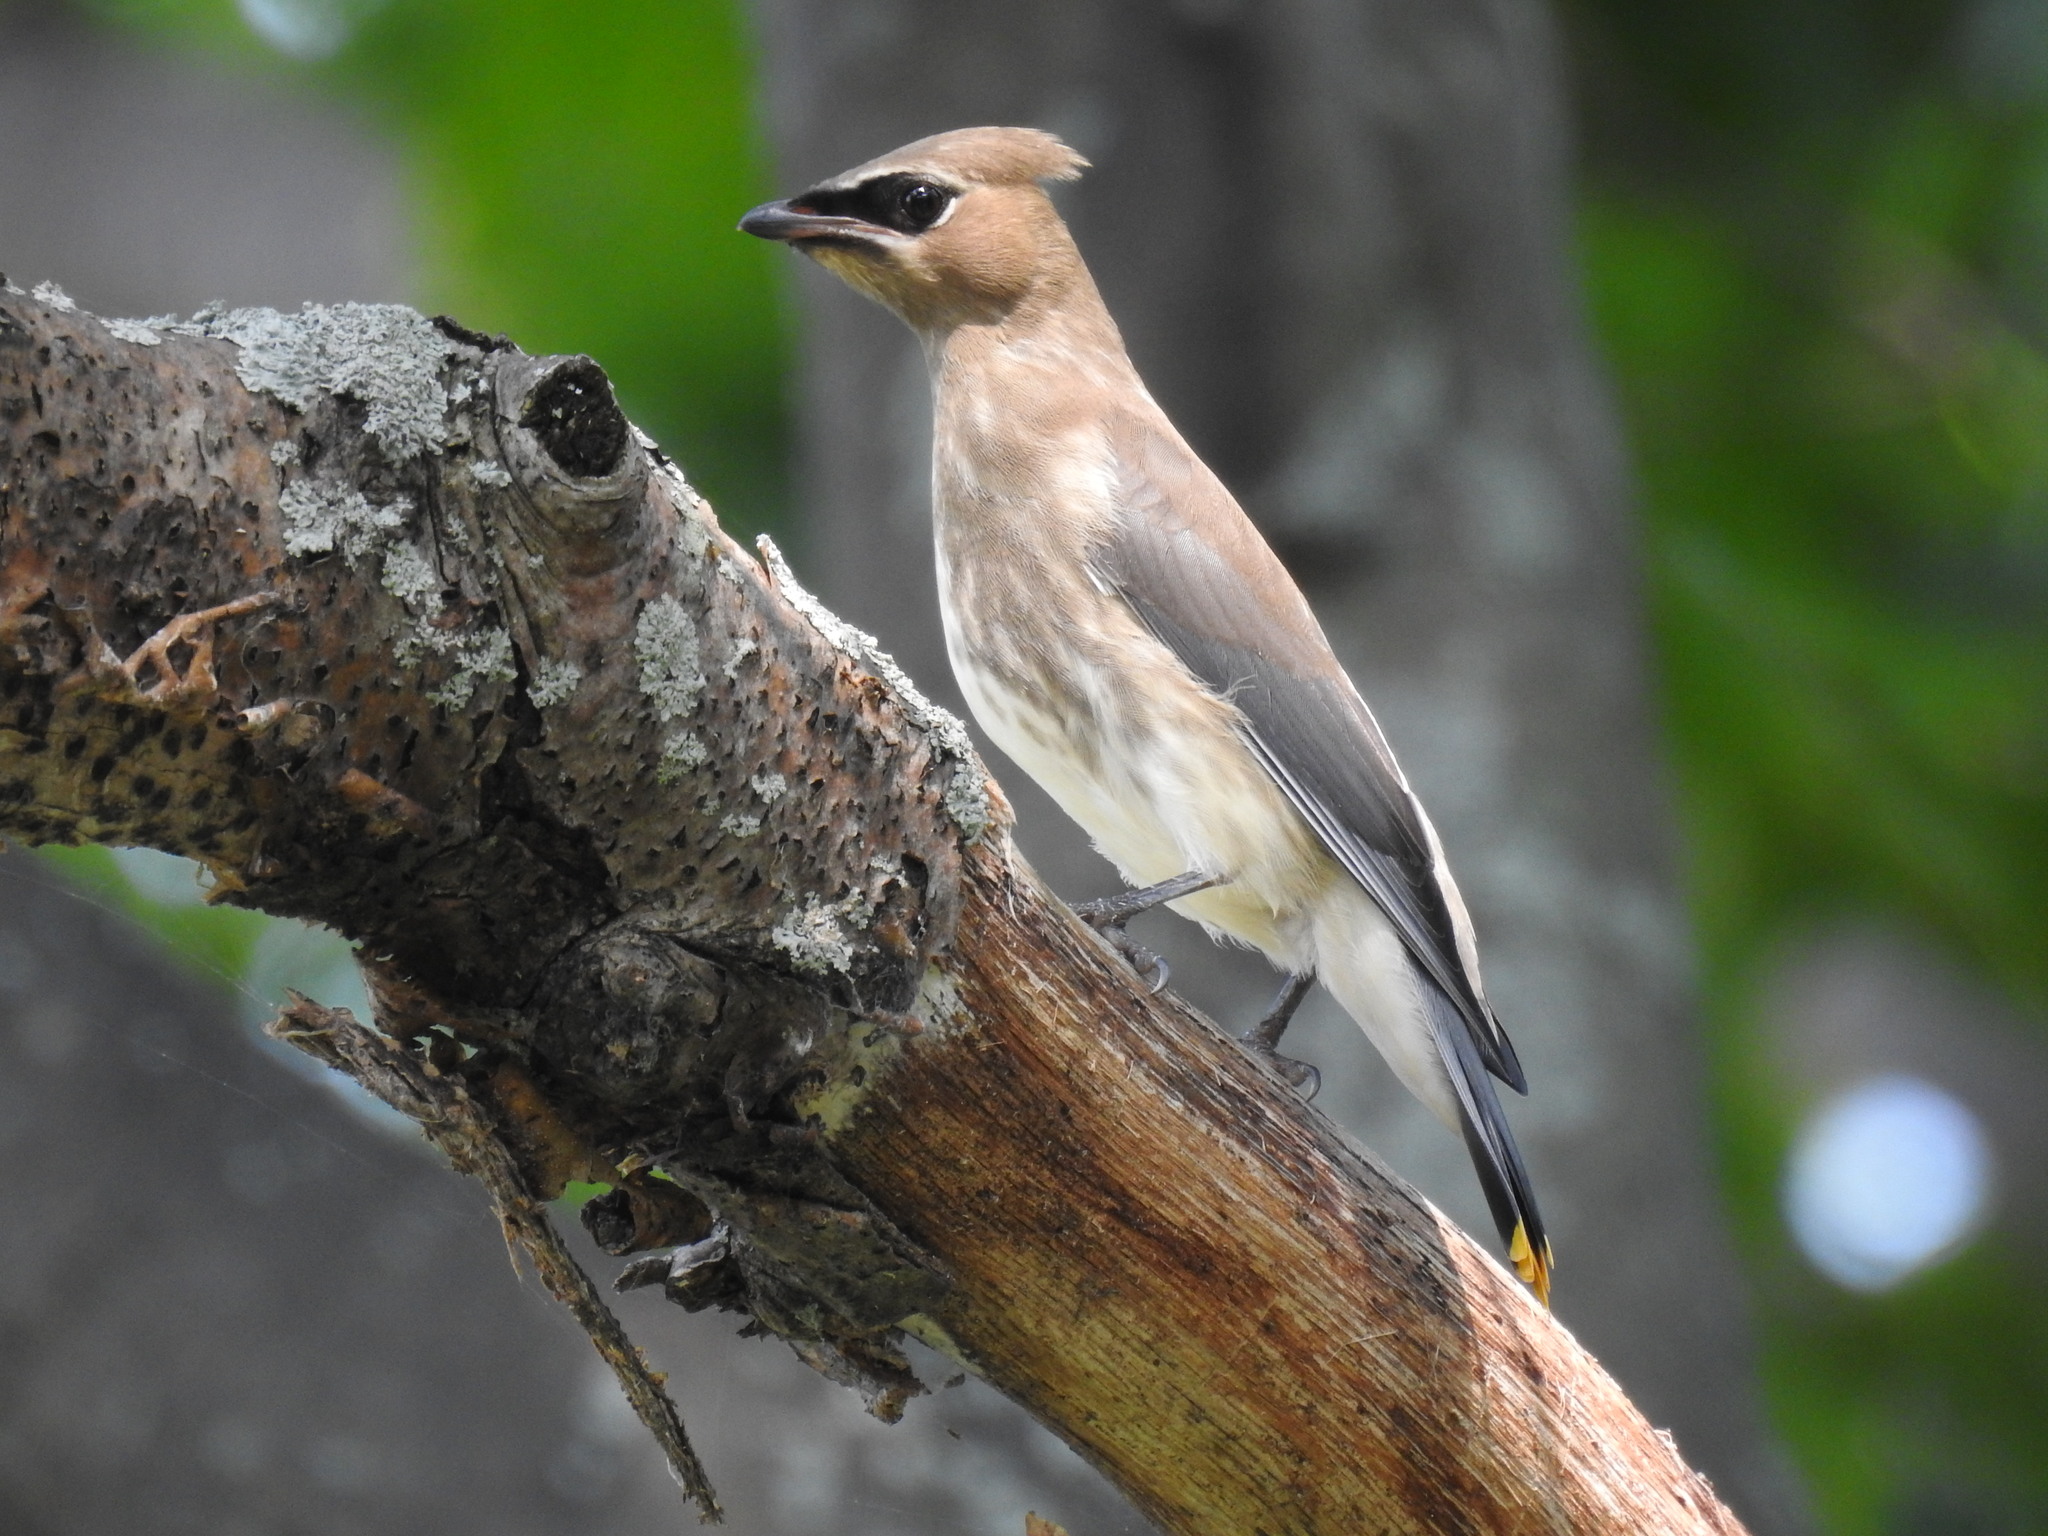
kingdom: Animalia
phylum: Chordata
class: Aves
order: Passeriformes
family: Bombycillidae
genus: Bombycilla
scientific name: Bombycilla cedrorum
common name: Cedar waxwing
